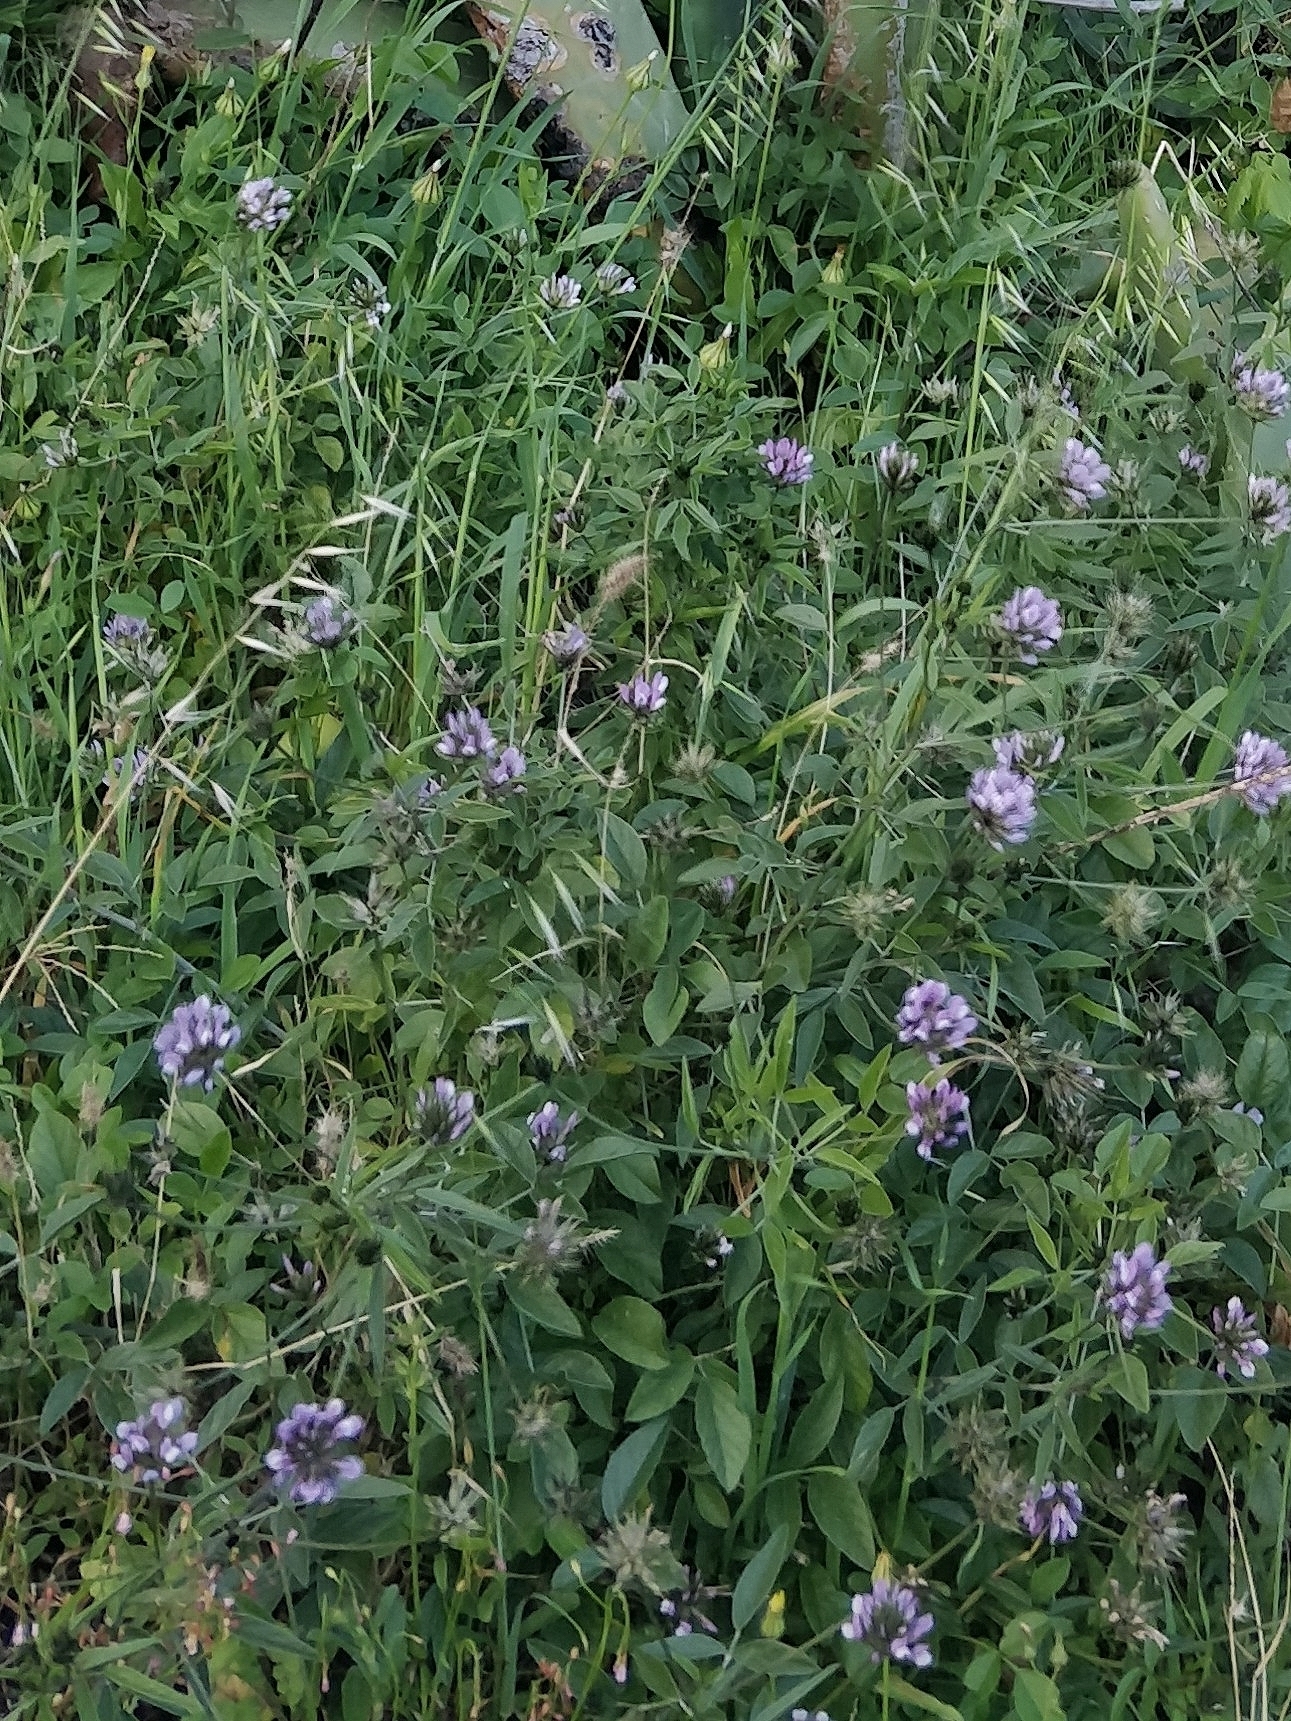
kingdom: Plantae
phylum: Tracheophyta
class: Magnoliopsida
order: Fabales
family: Fabaceae
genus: Bituminaria
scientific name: Bituminaria bituminosa
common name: Arabian pea
